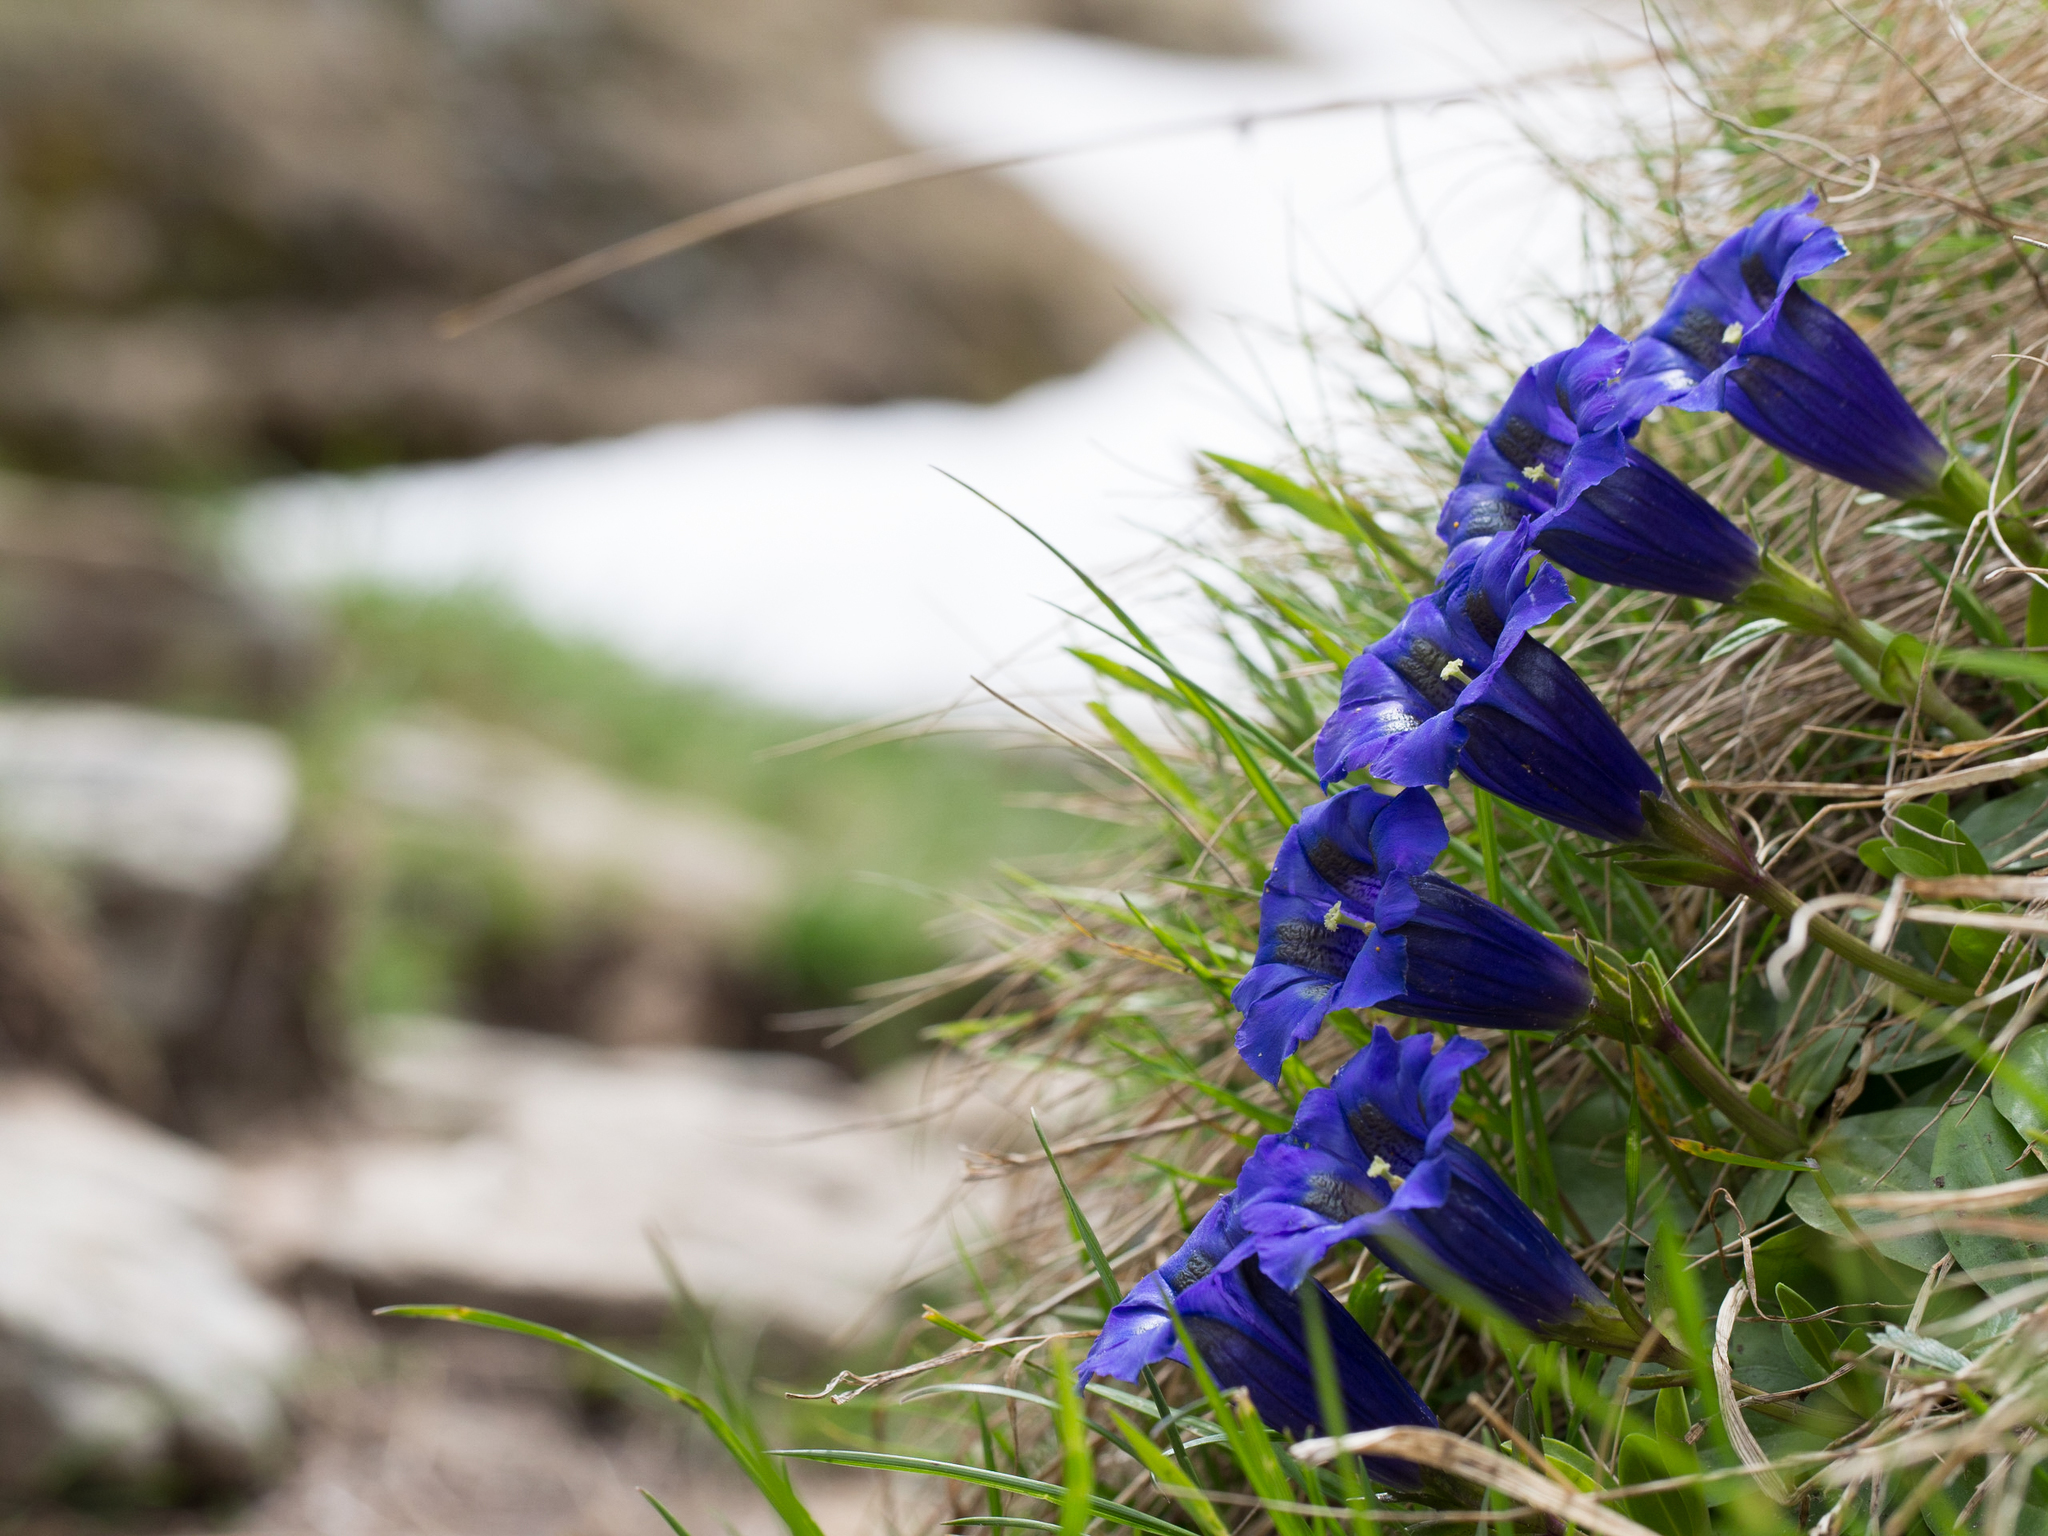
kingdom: Plantae
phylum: Tracheophyta
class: Magnoliopsida
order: Gentianales
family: Gentianaceae
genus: Gentiana
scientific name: Gentiana acaulis
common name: Trumpet gentian
